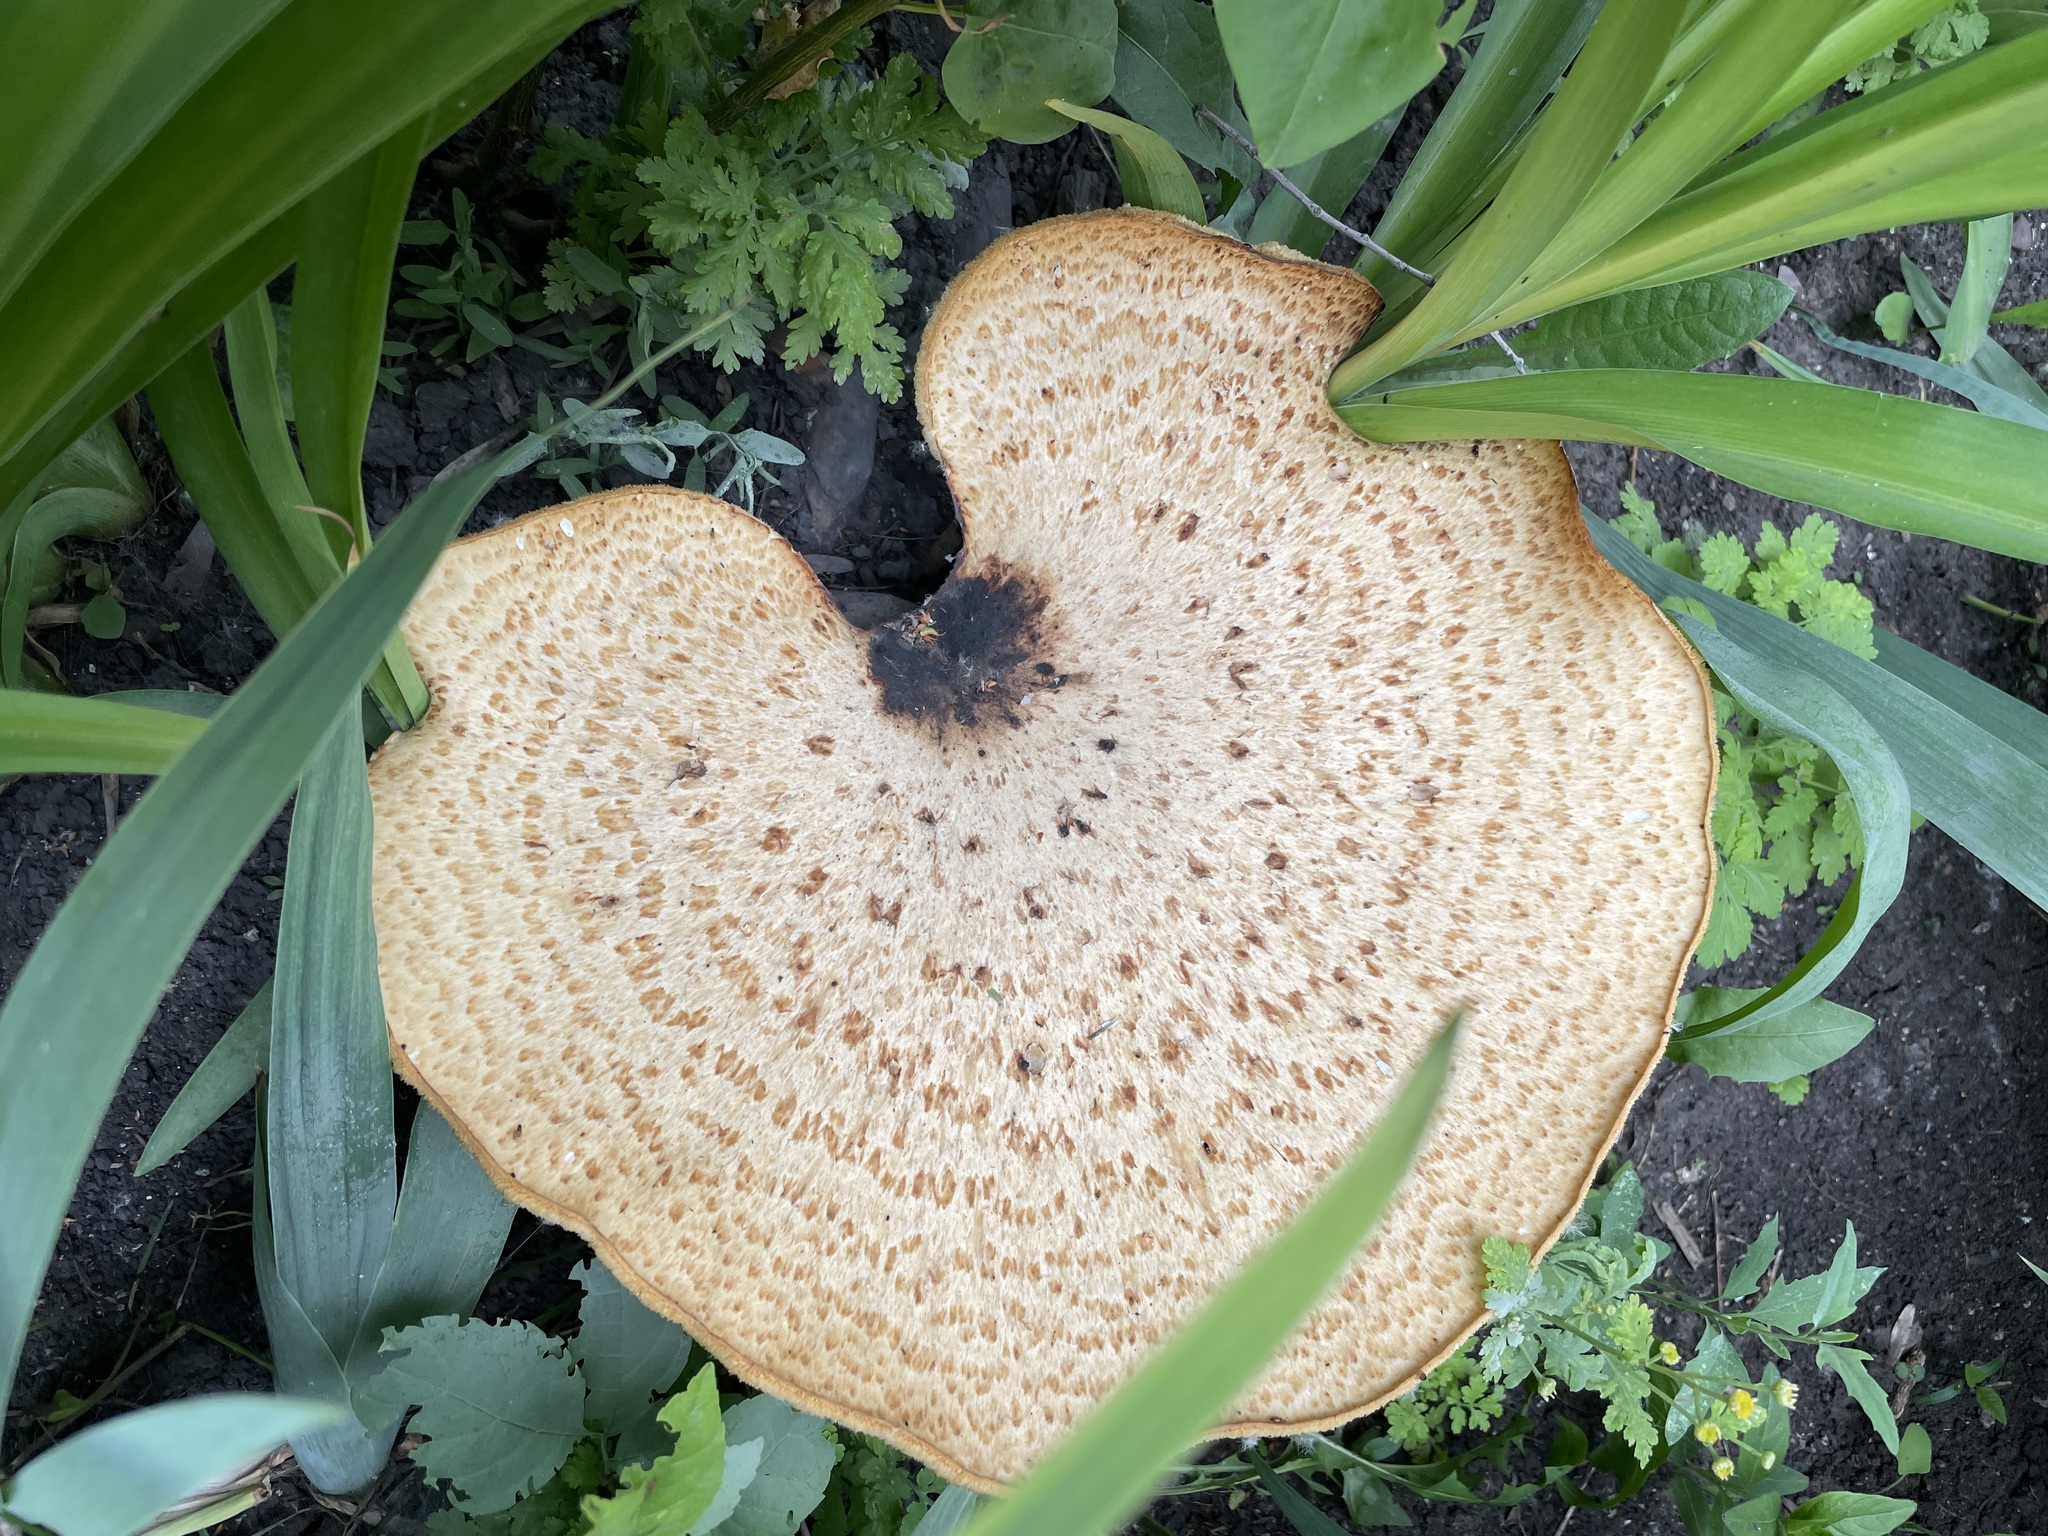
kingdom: Fungi
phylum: Basidiomycota
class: Agaricomycetes
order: Polyporales
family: Polyporaceae
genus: Cerioporus
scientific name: Cerioporus squamosus
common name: Dryad's saddle
